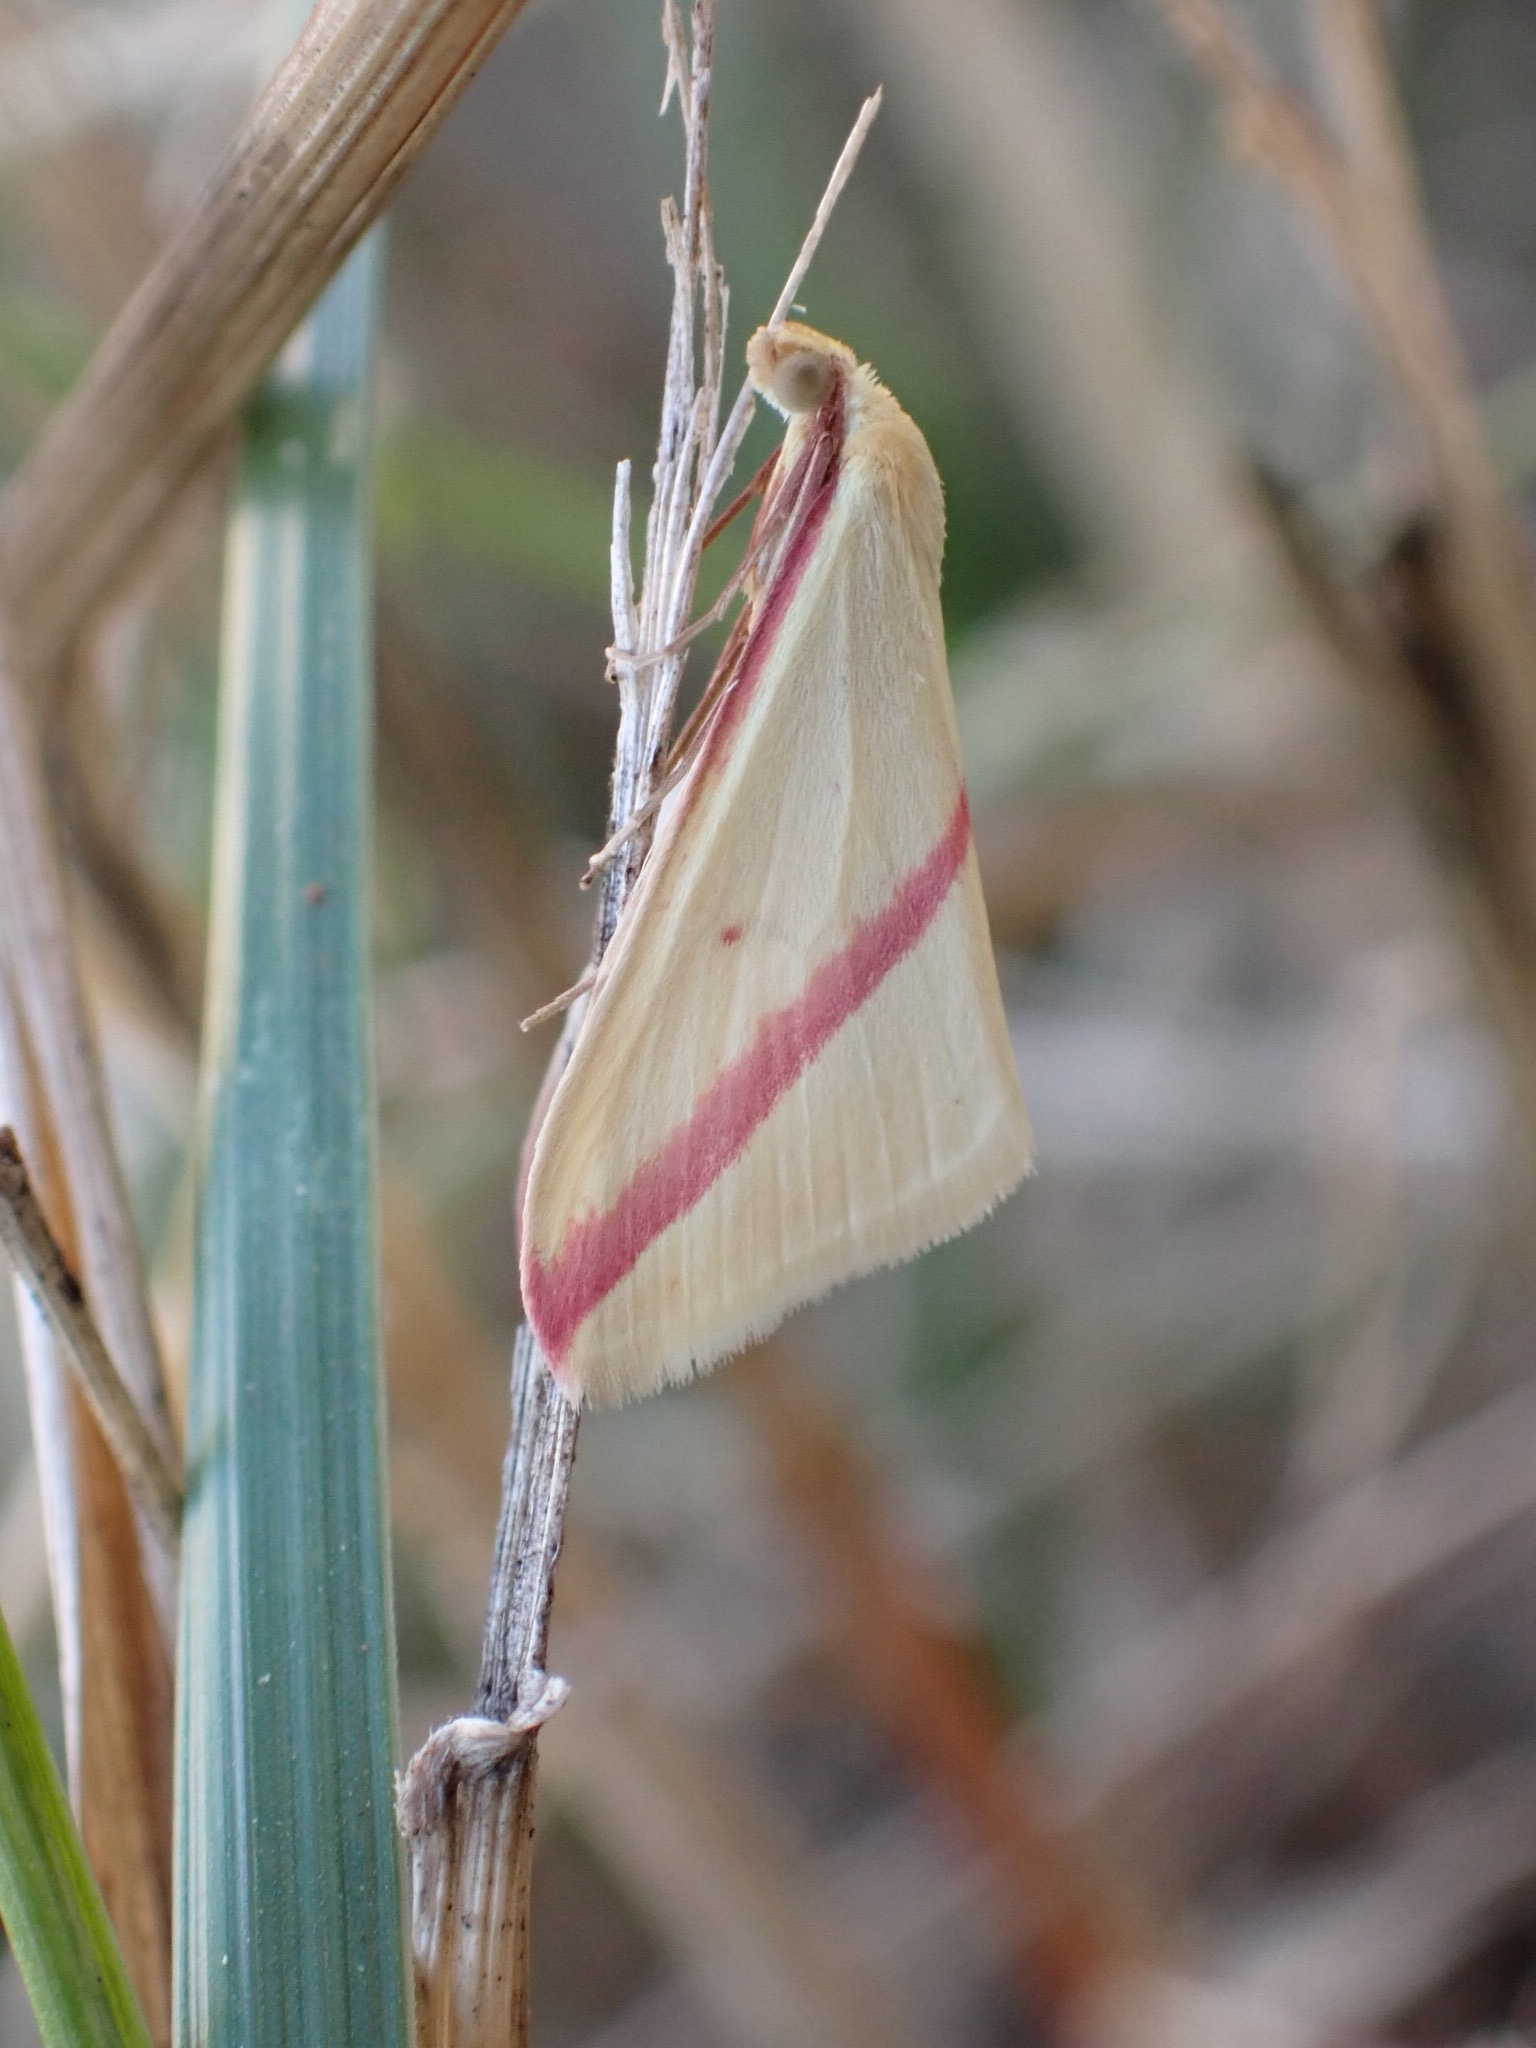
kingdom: Animalia
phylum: Arthropoda
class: Insecta
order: Lepidoptera
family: Geometridae
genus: Rhodometra
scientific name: Rhodometra sacraria
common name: Vestal
